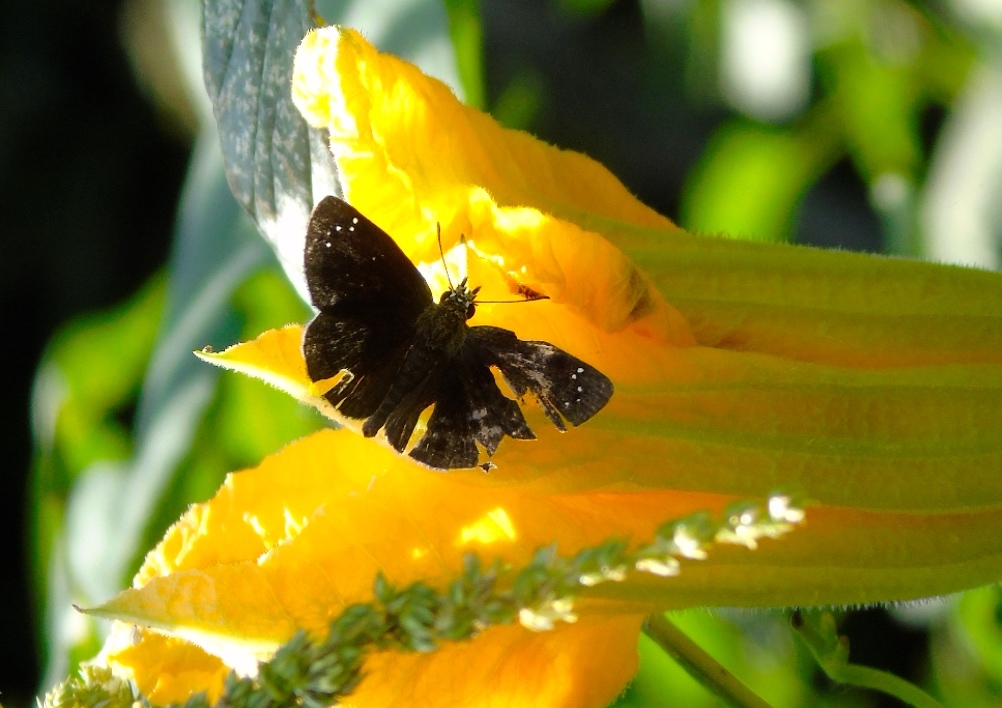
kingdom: Animalia
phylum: Arthropoda
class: Insecta
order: Lepidoptera
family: Hesperiidae
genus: Pholisora
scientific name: Pholisora catullus
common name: Common sootywing
